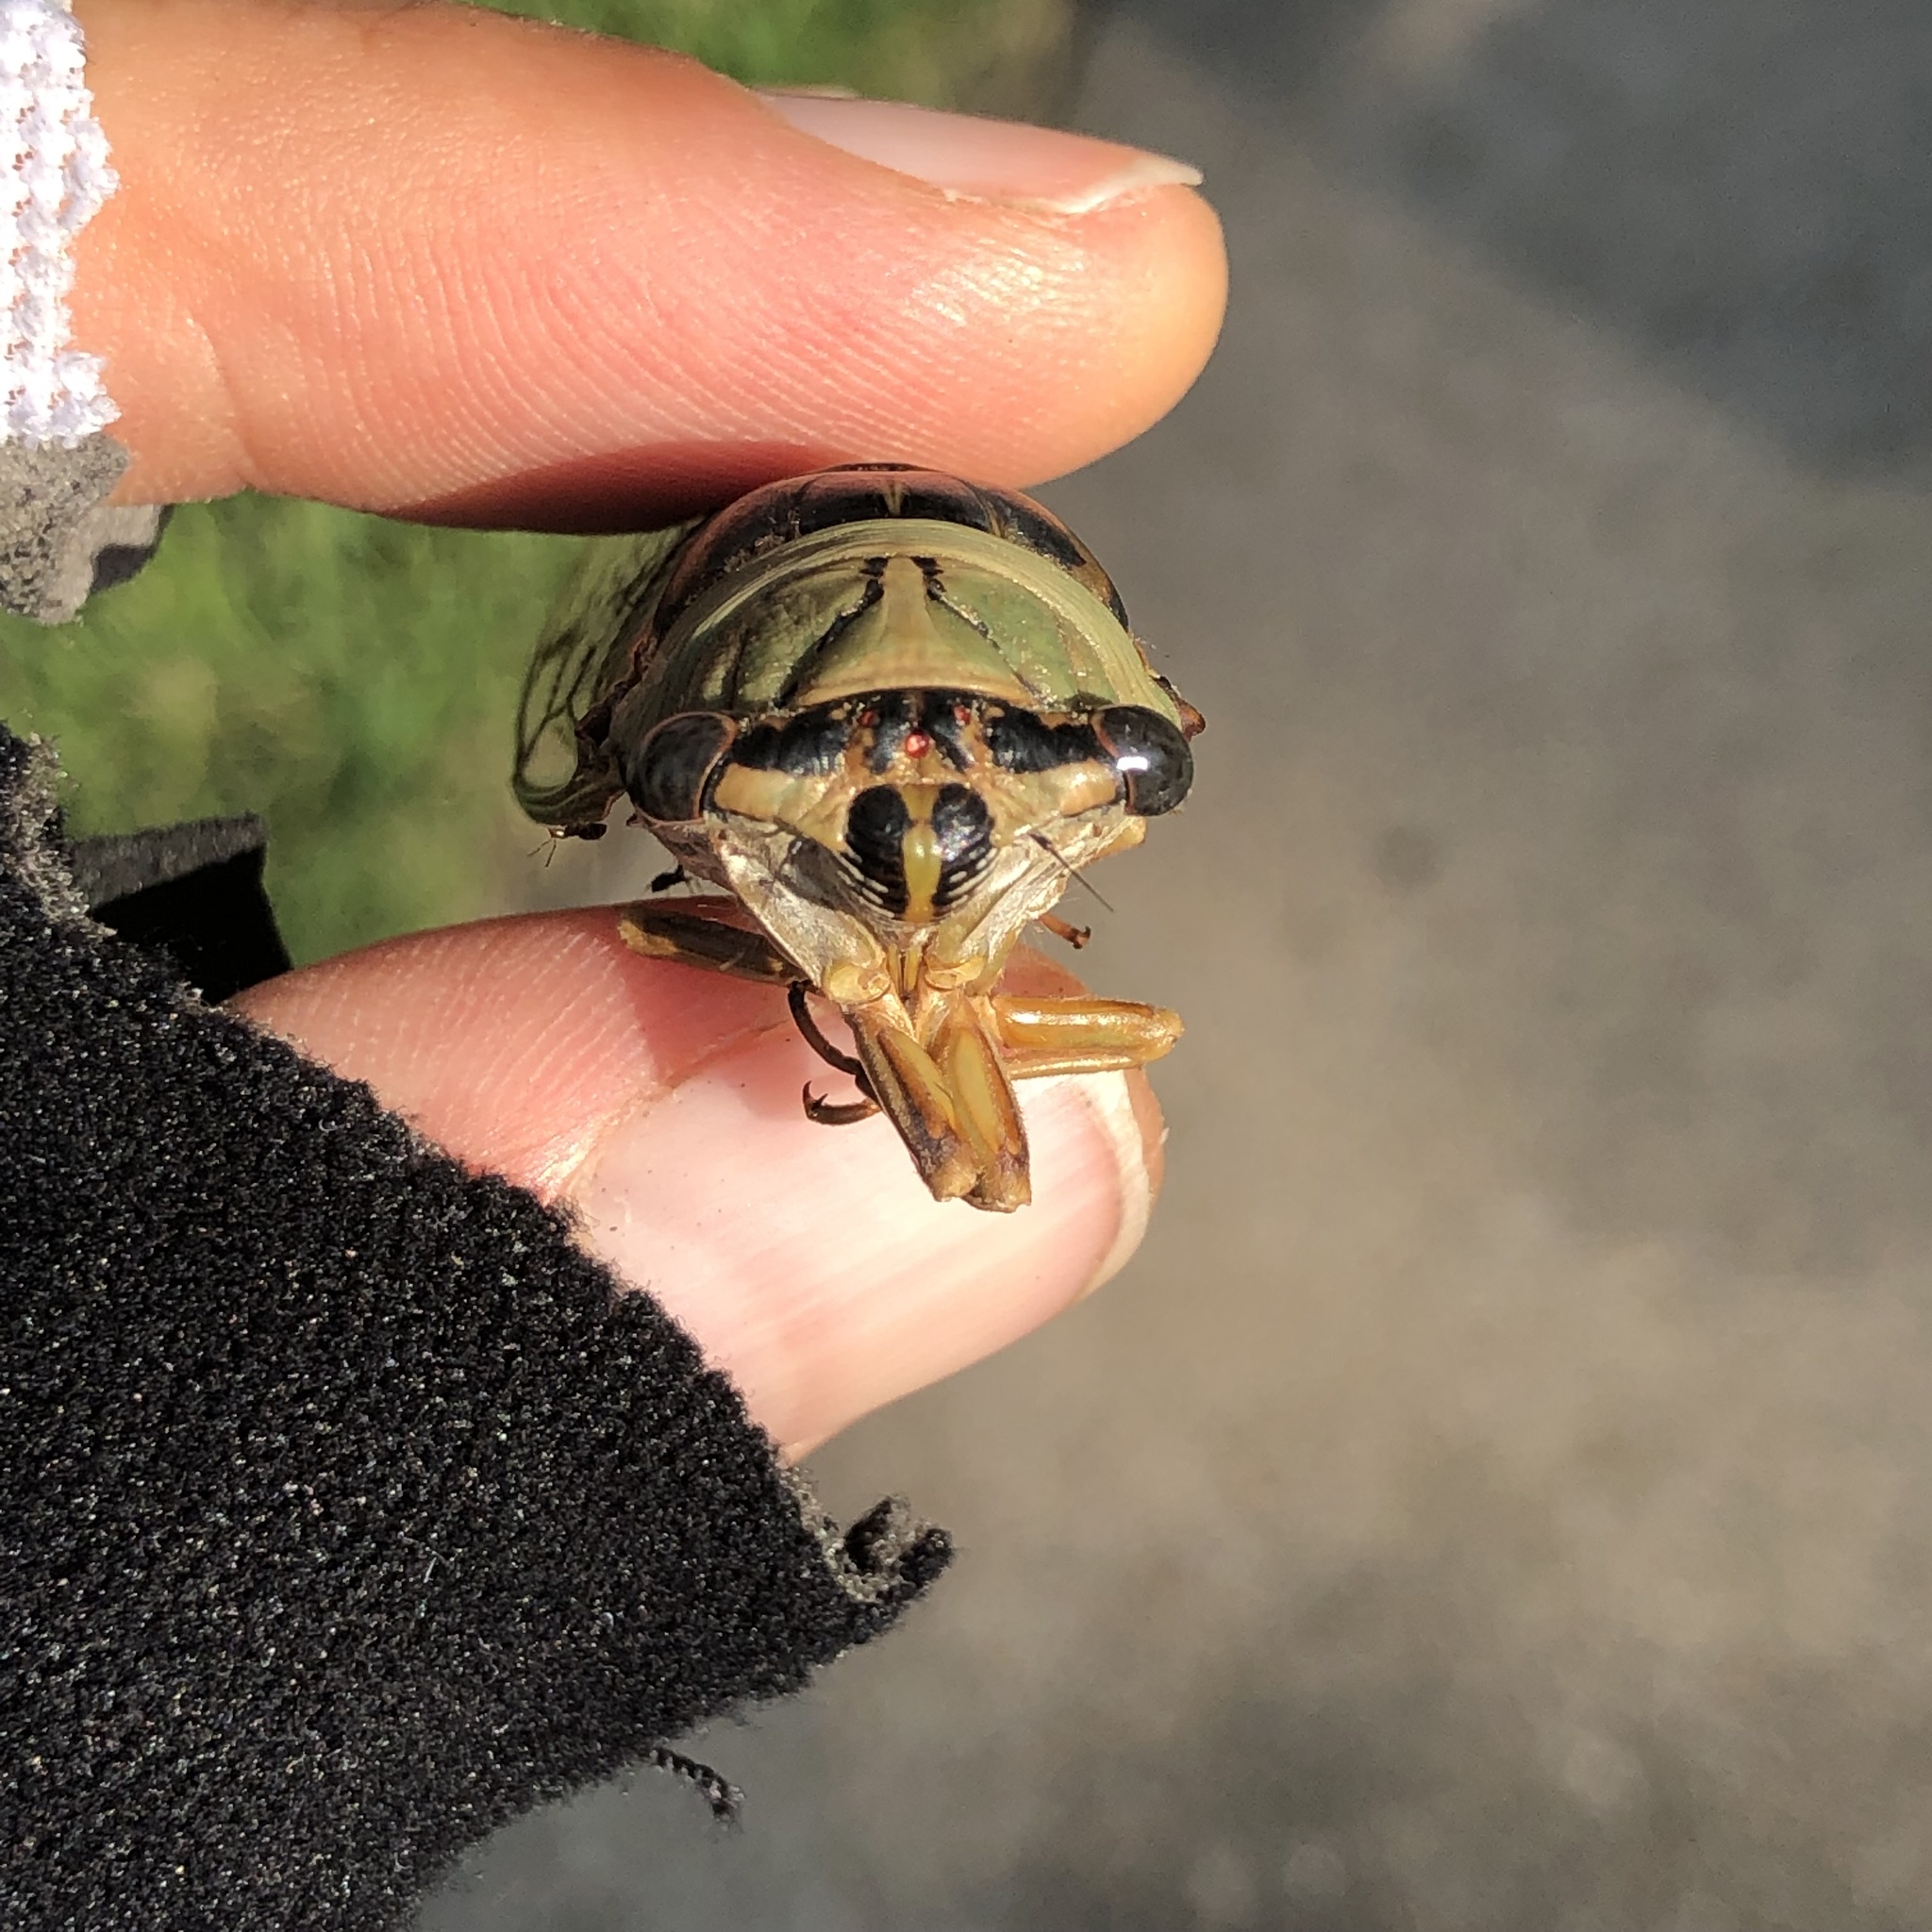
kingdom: Animalia
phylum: Arthropoda
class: Insecta
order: Hemiptera
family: Cicadidae
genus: Megatibicen
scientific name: Megatibicen resh
